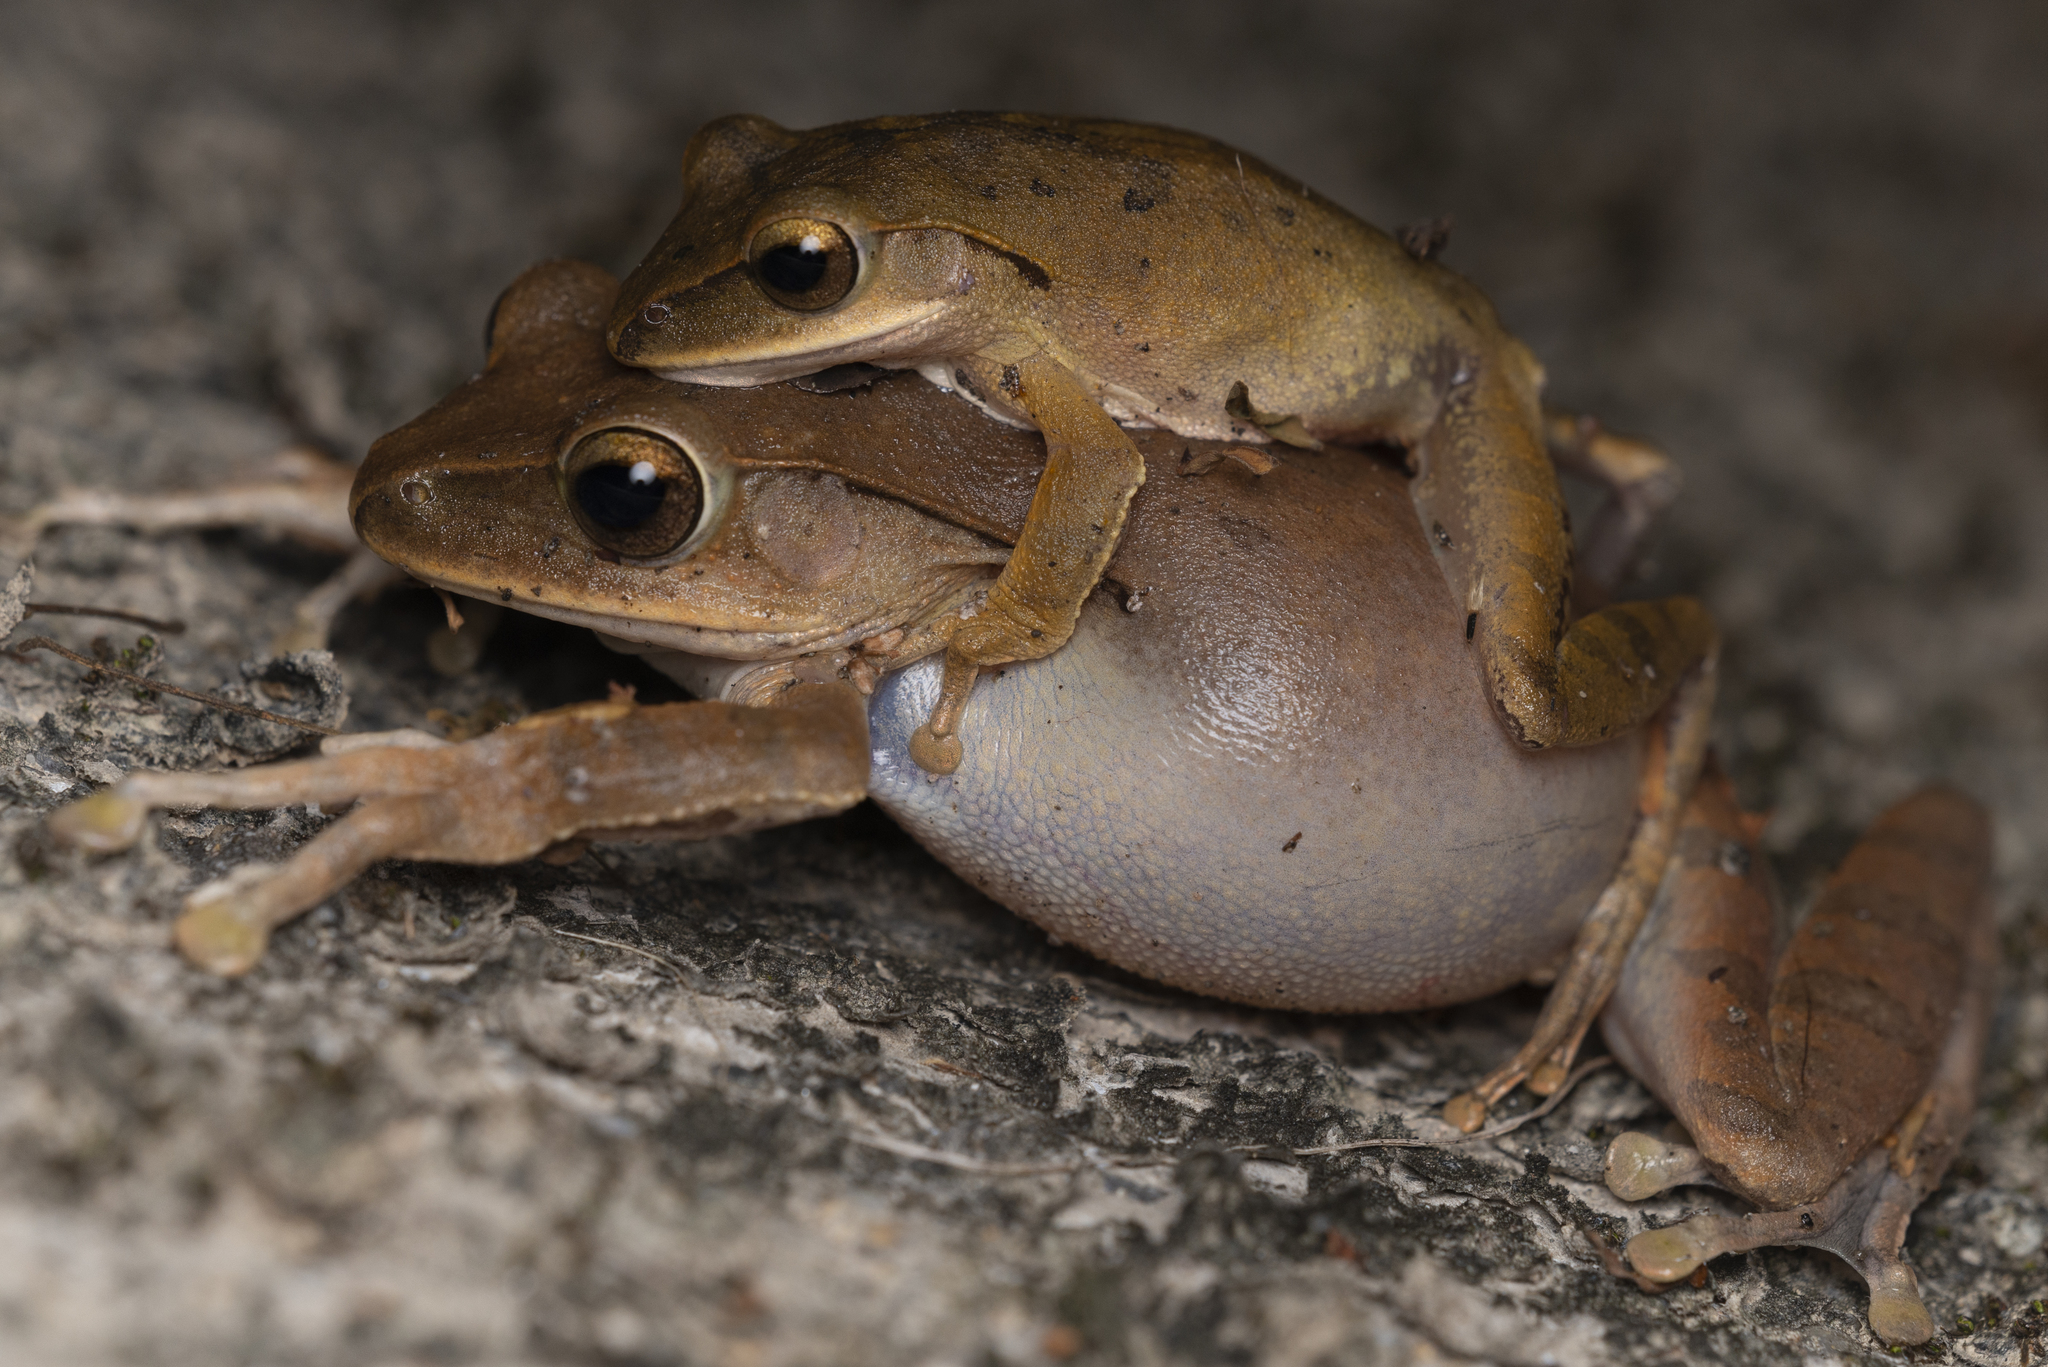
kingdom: Animalia
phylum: Chordata
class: Amphibia
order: Anura
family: Rhacophoridae
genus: Polypedates
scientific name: Polypedates megacephalus
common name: Hong kong whipping frog
